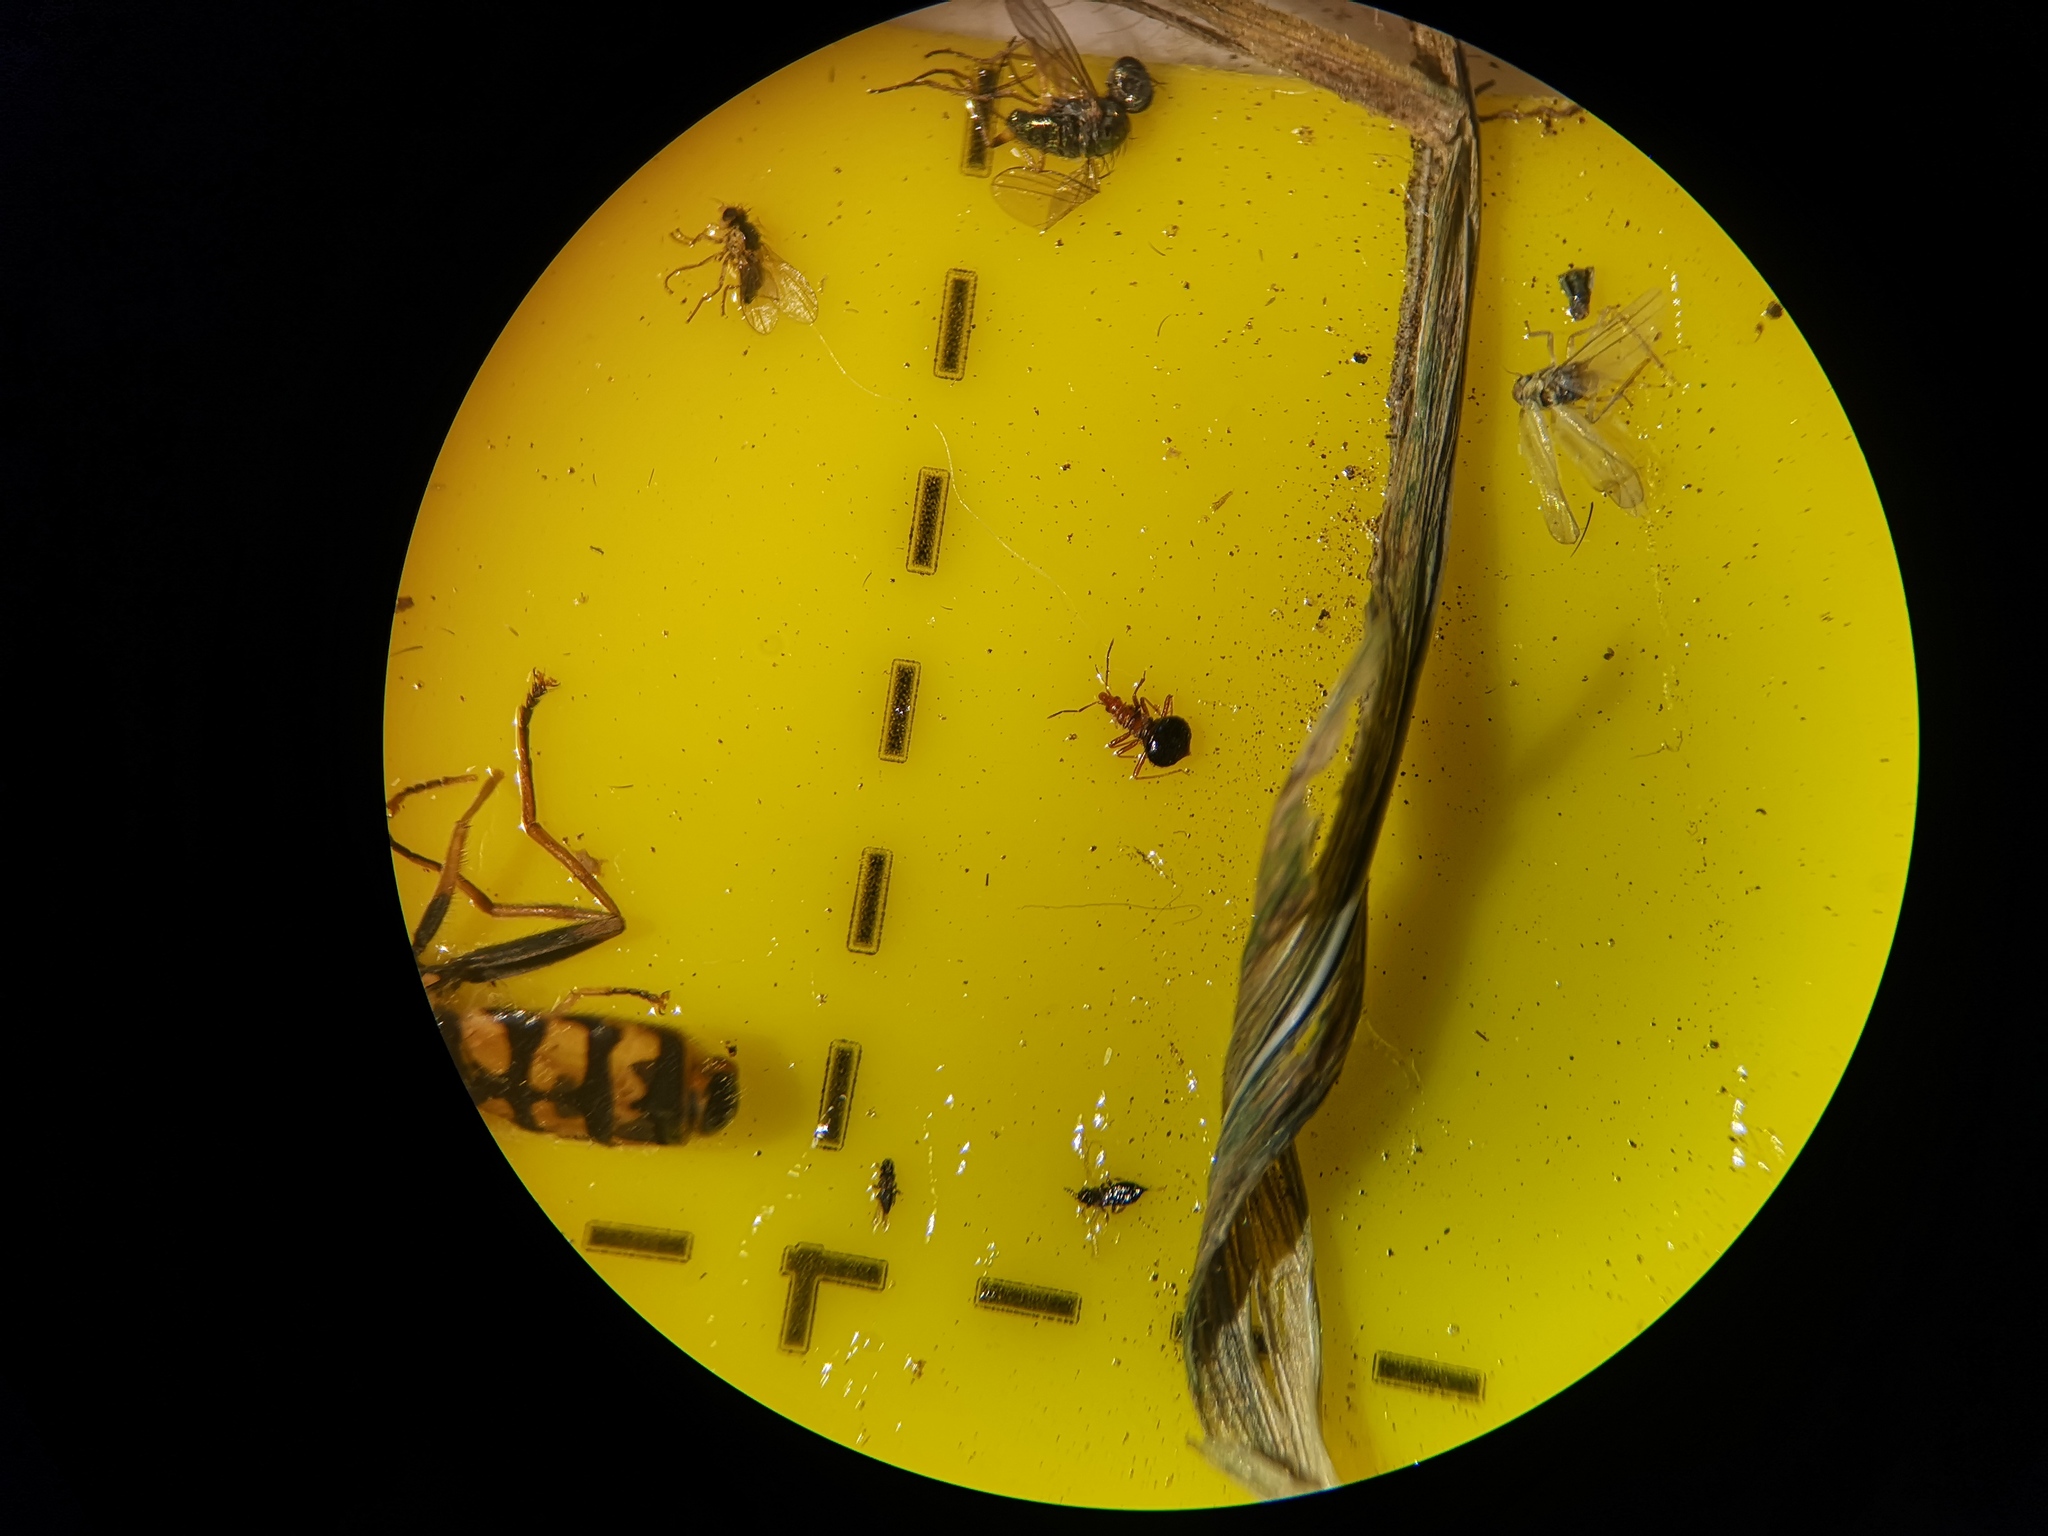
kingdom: Animalia
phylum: Arthropoda
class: Insecta
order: Hemiptera
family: Microphysidae
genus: Loricula
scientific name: Loricula elegantula
